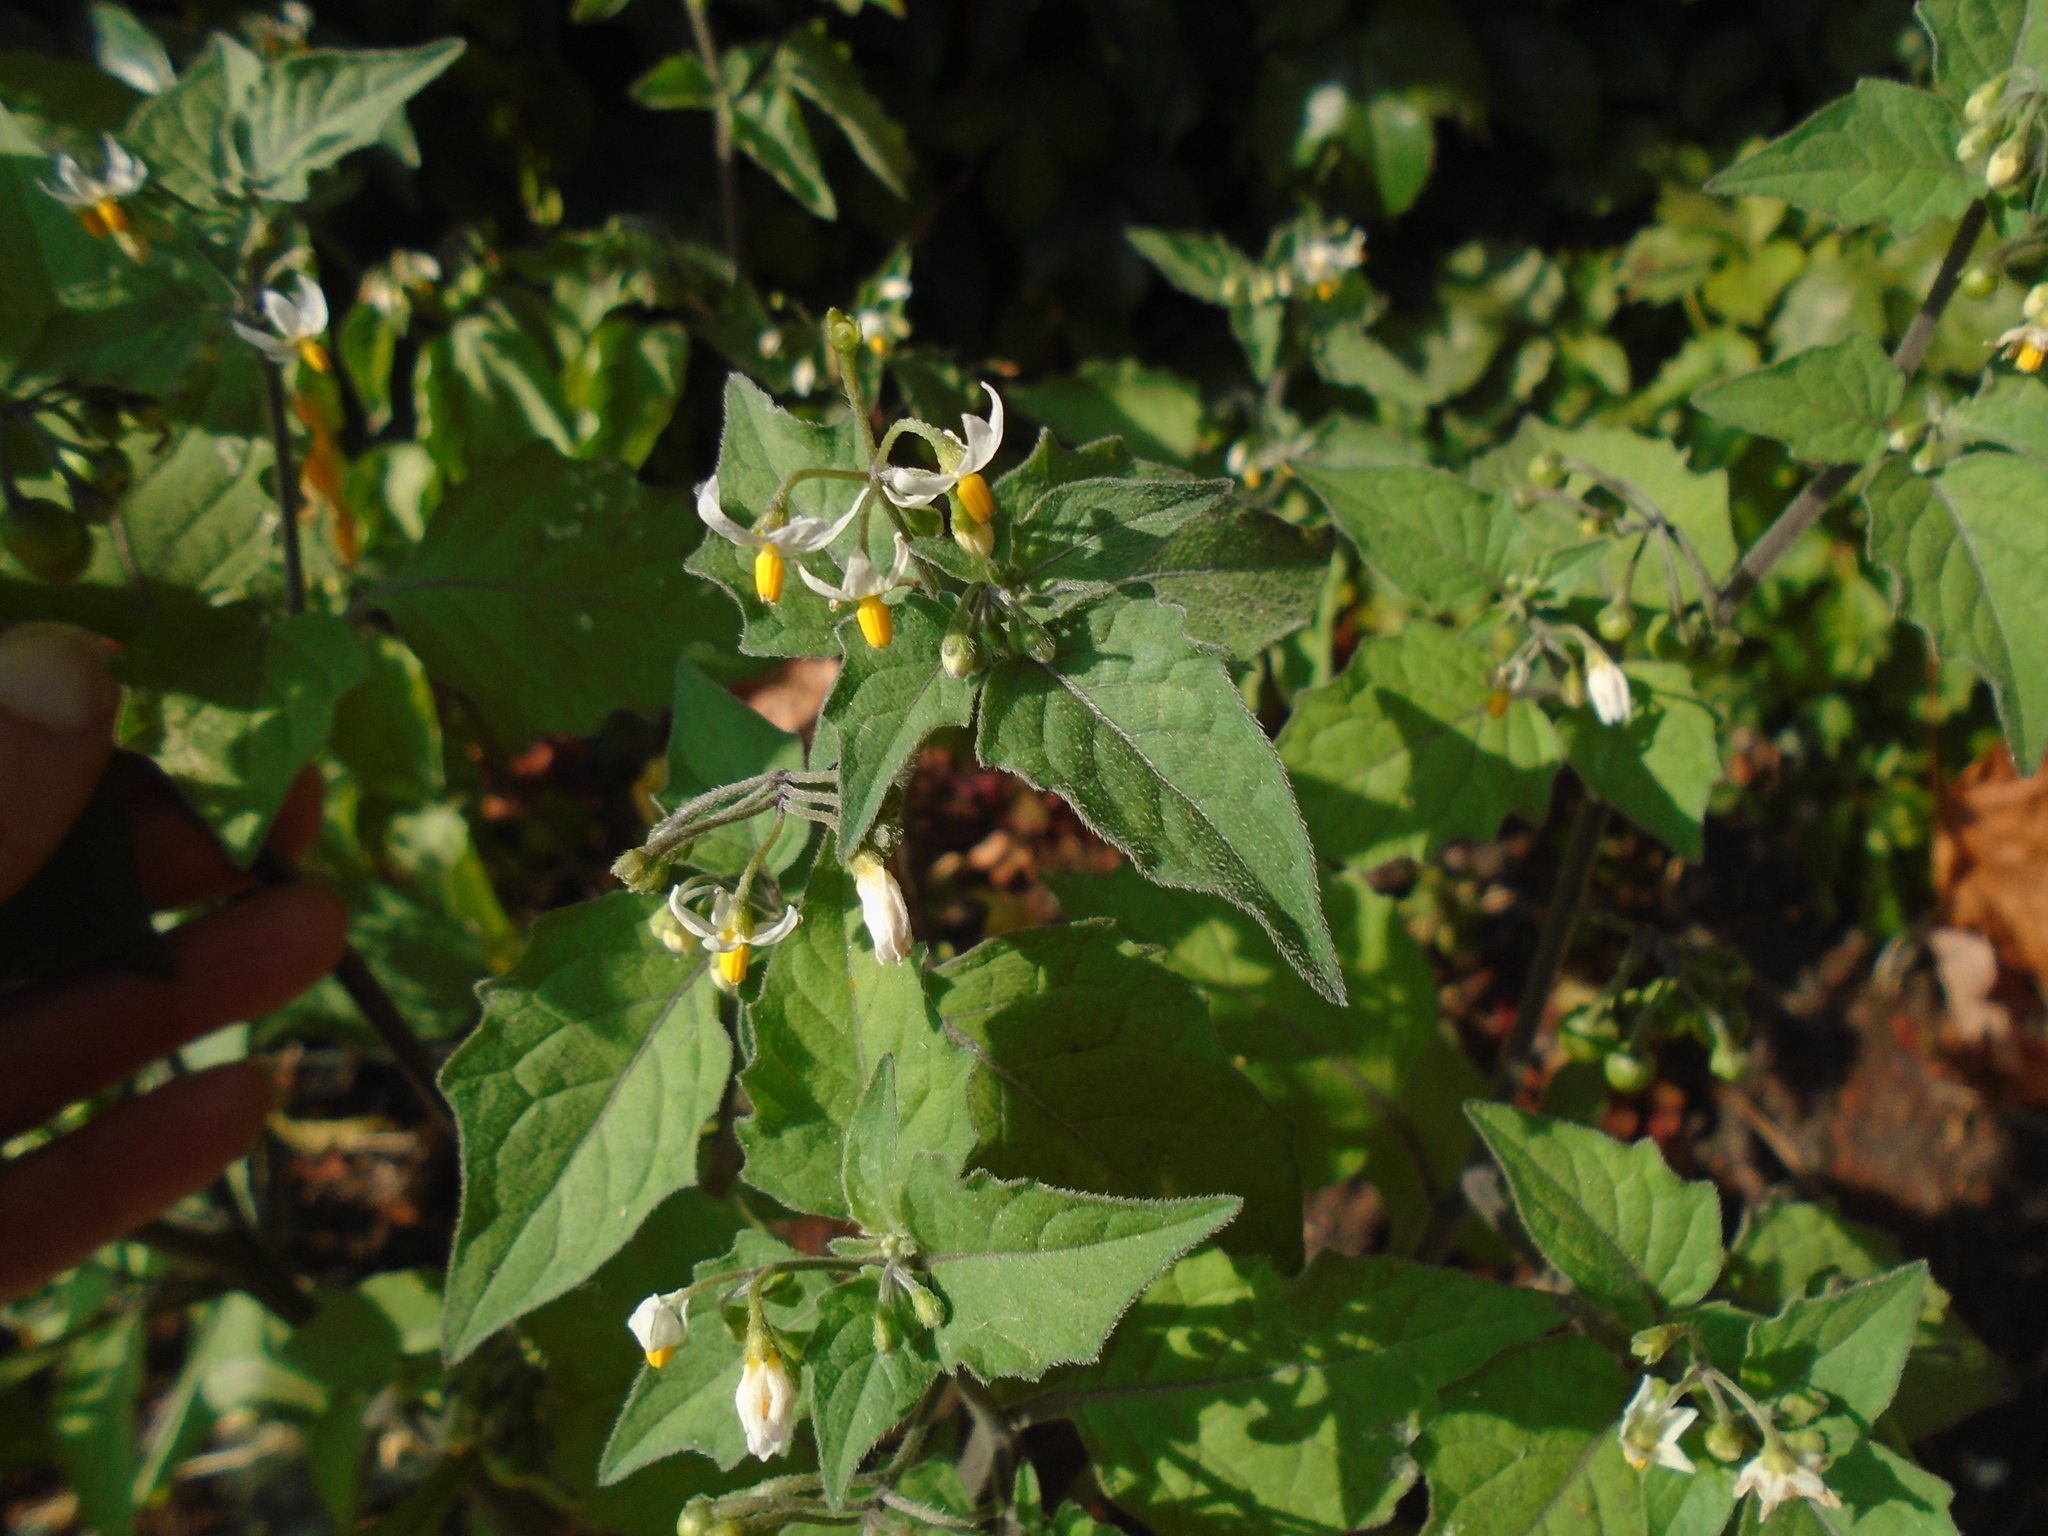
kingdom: Plantae
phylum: Tracheophyta
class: Magnoliopsida
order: Solanales
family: Solanaceae
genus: Solanum
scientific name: Solanum nigrum
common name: Black nightshade
